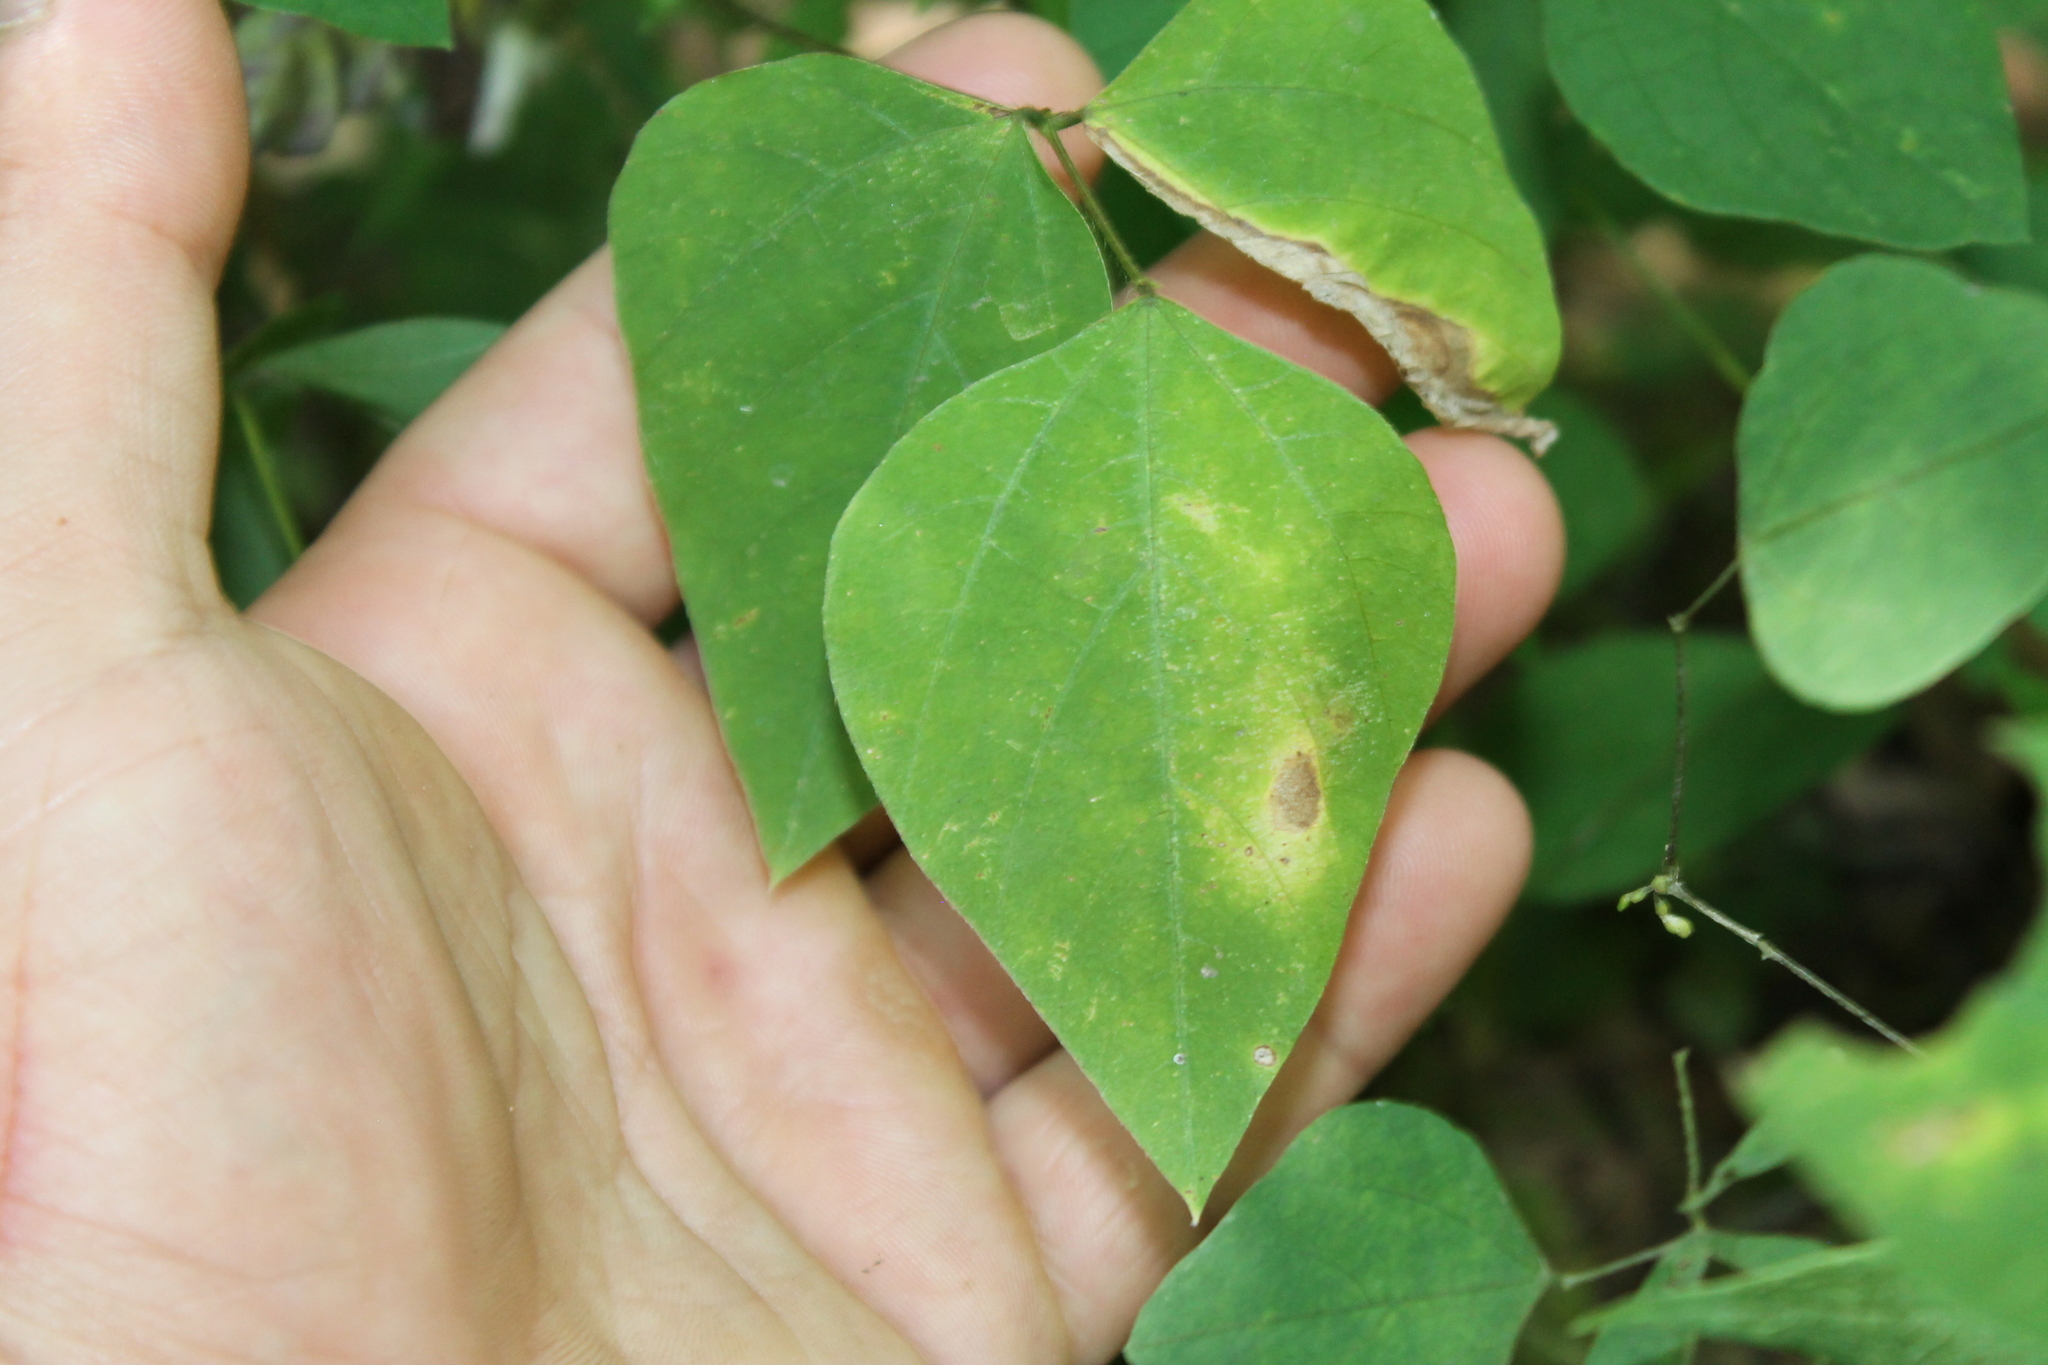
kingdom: Plantae
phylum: Tracheophyta
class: Magnoliopsida
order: Fabales
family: Fabaceae
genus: Amphicarpaea
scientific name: Amphicarpaea bracteata
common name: American hog peanut
